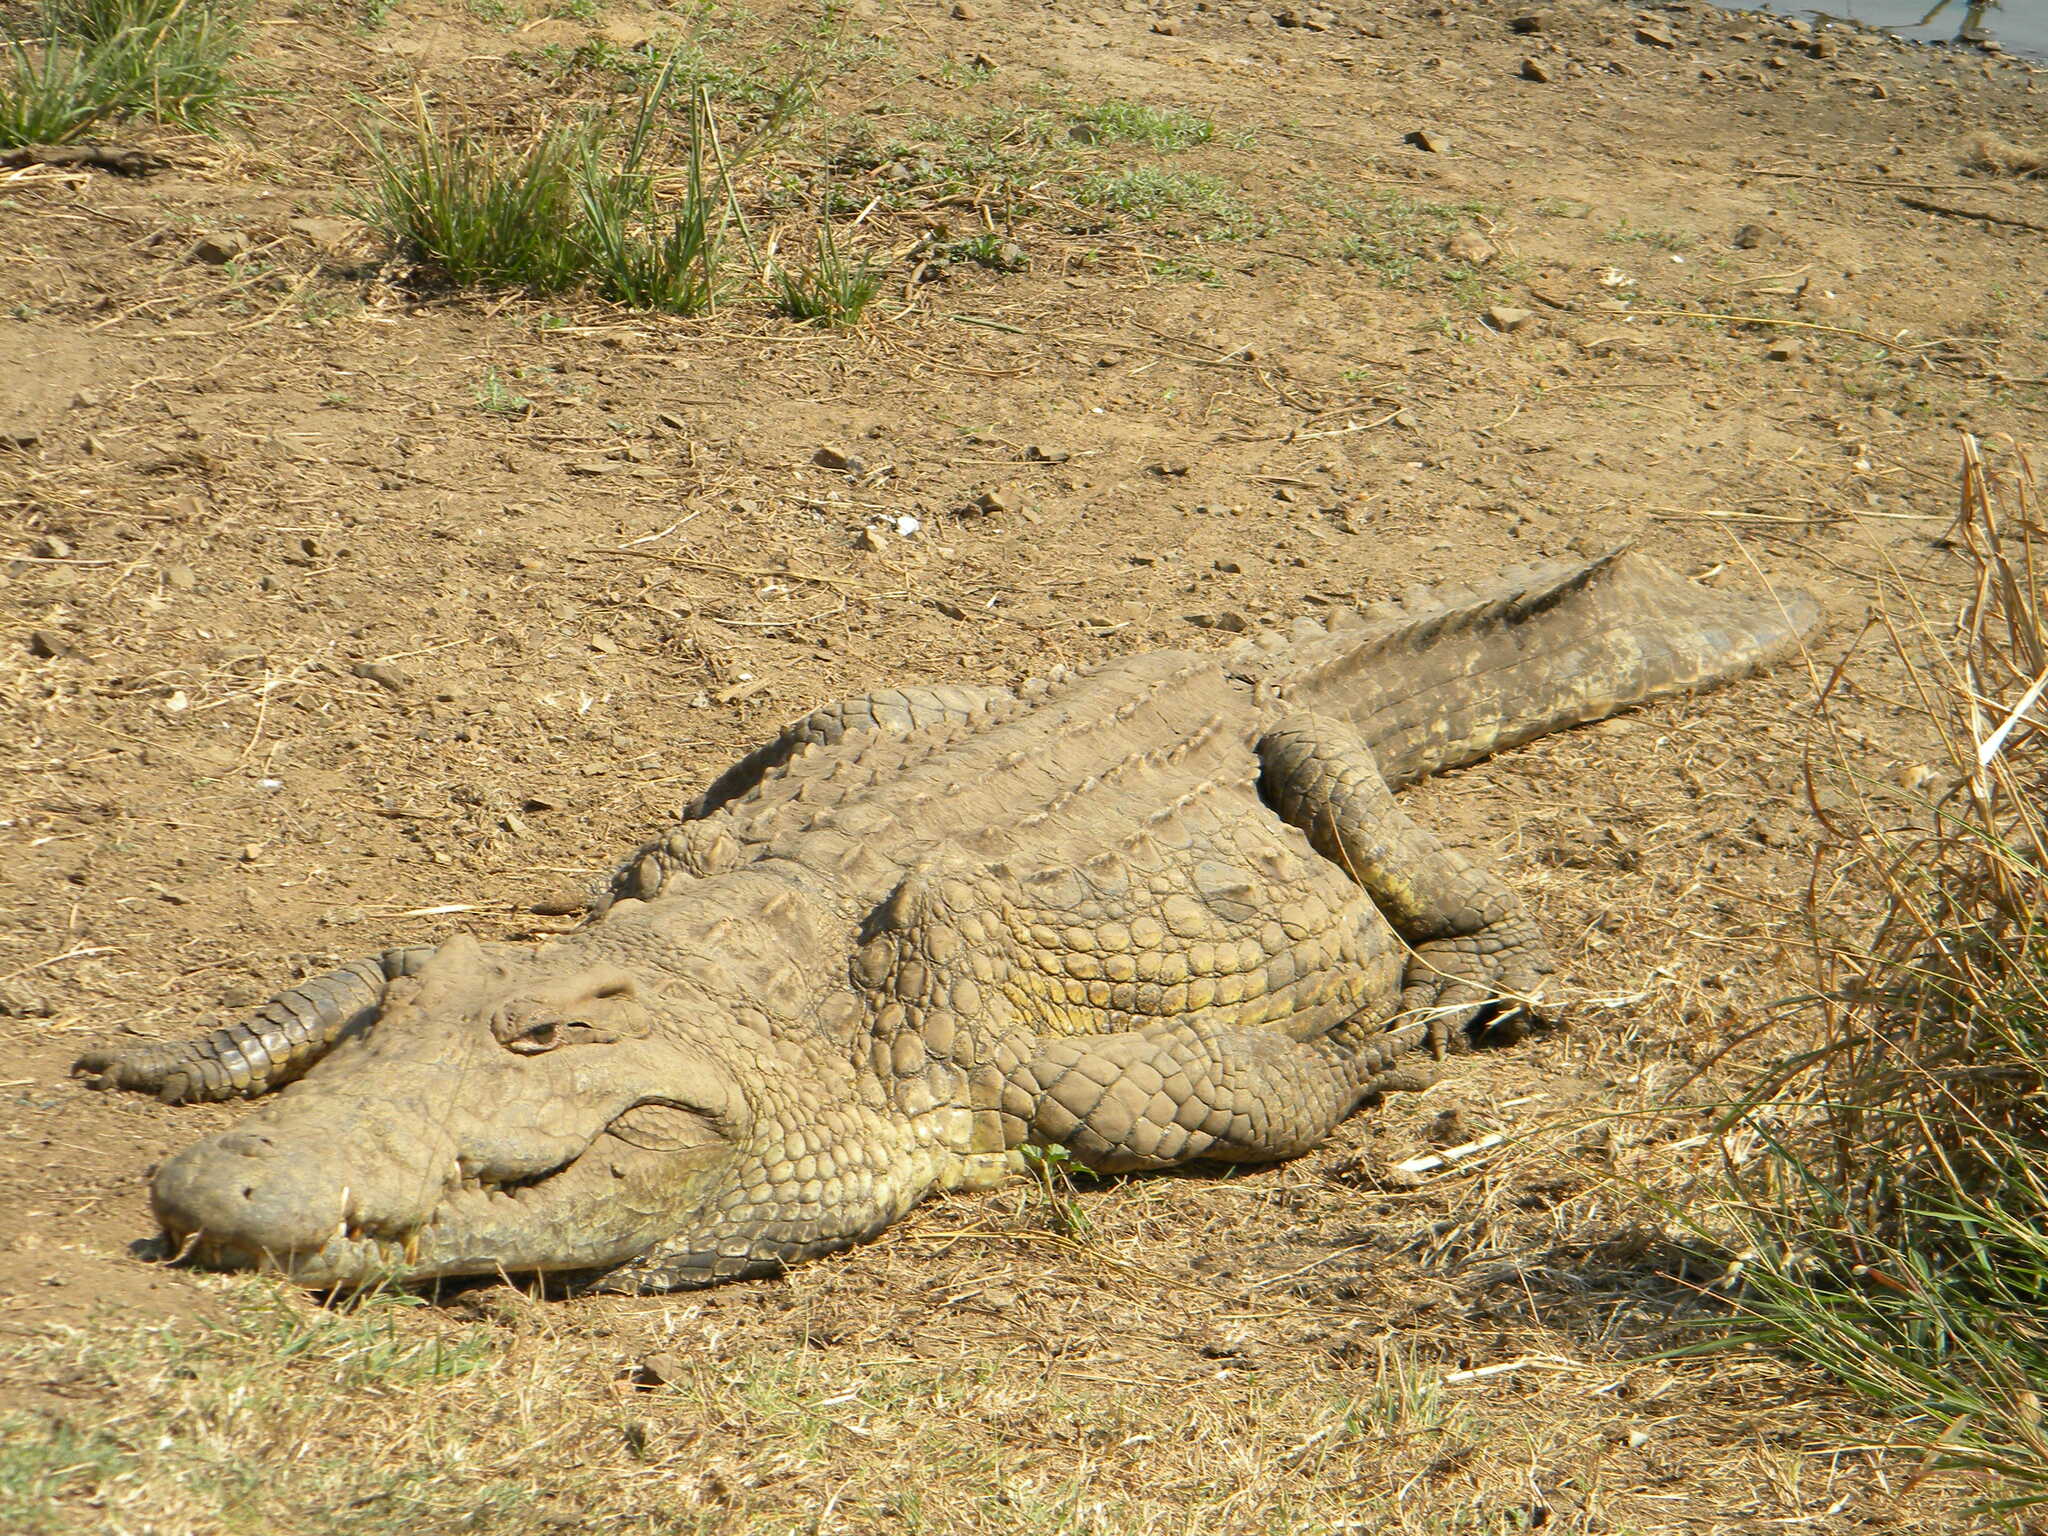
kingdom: Animalia
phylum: Chordata
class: Crocodylia
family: Crocodylidae
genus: Crocodylus
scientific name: Crocodylus niloticus
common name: Nile crocodile
